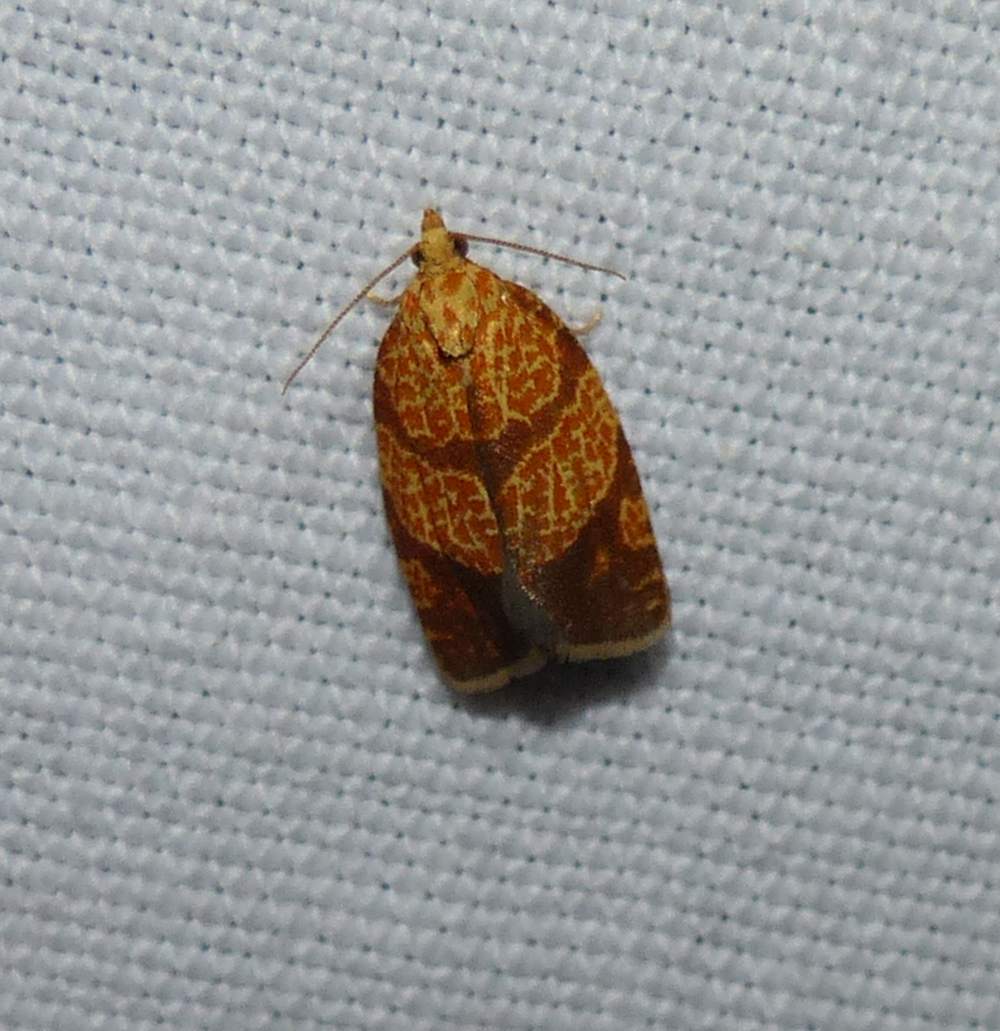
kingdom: Animalia
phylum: Arthropoda
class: Insecta
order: Lepidoptera
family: Tortricidae
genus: Argyrotaenia
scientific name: Argyrotaenia quadrifasciana
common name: Four-lined leafroller moth
